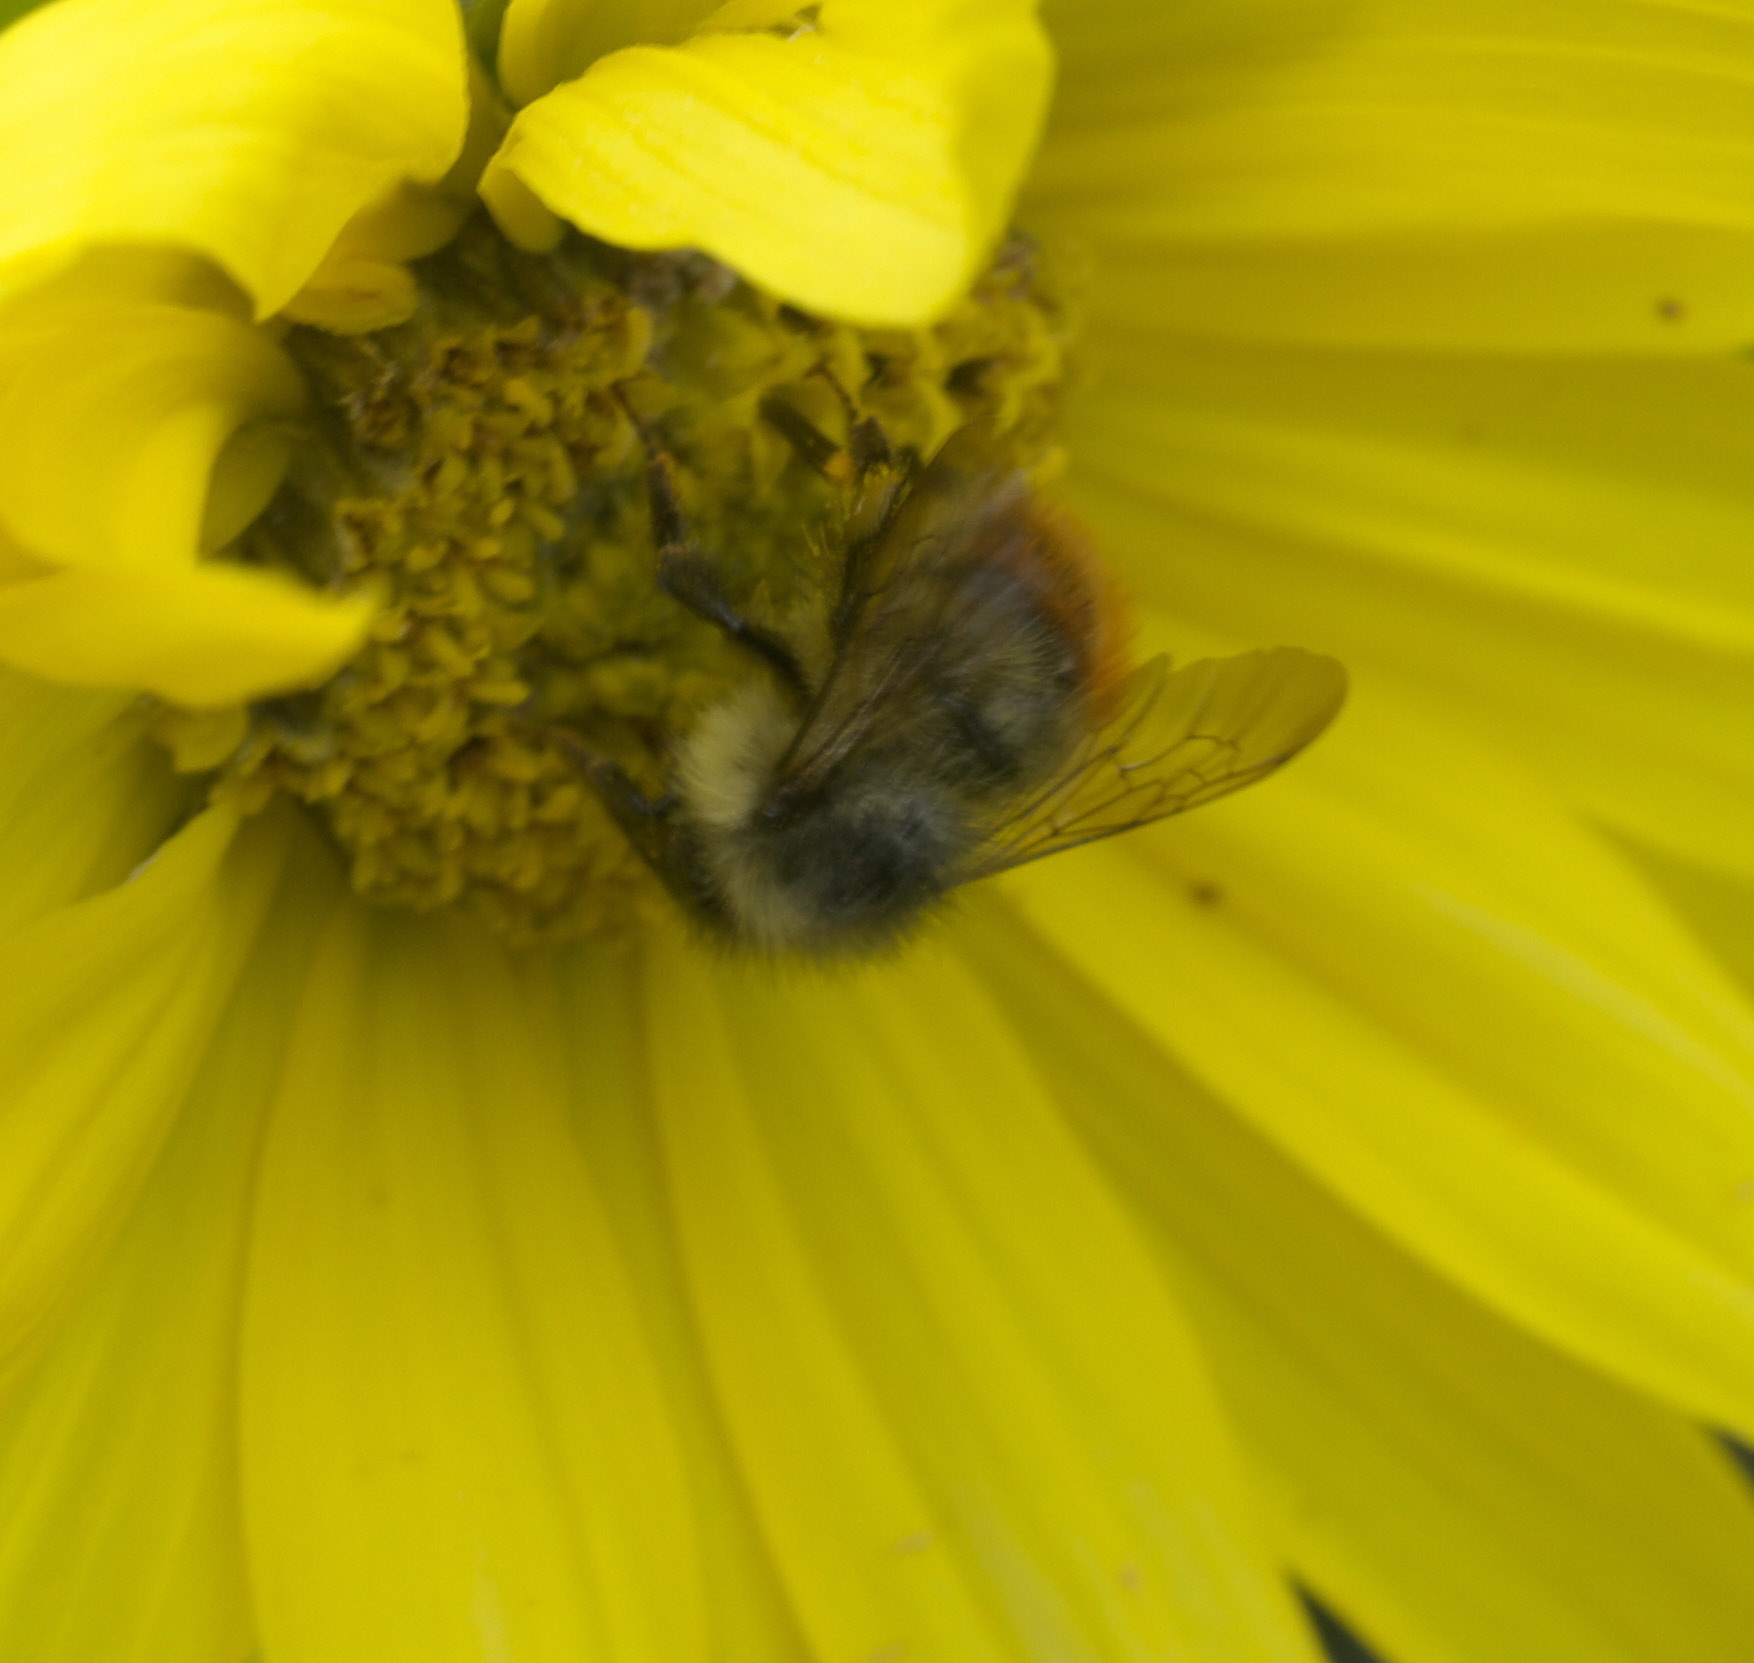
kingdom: Animalia
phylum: Arthropoda
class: Insecta
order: Hymenoptera
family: Apidae
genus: Bombus
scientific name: Bombus mixtus
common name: Fuzzy-horned bumble bee
